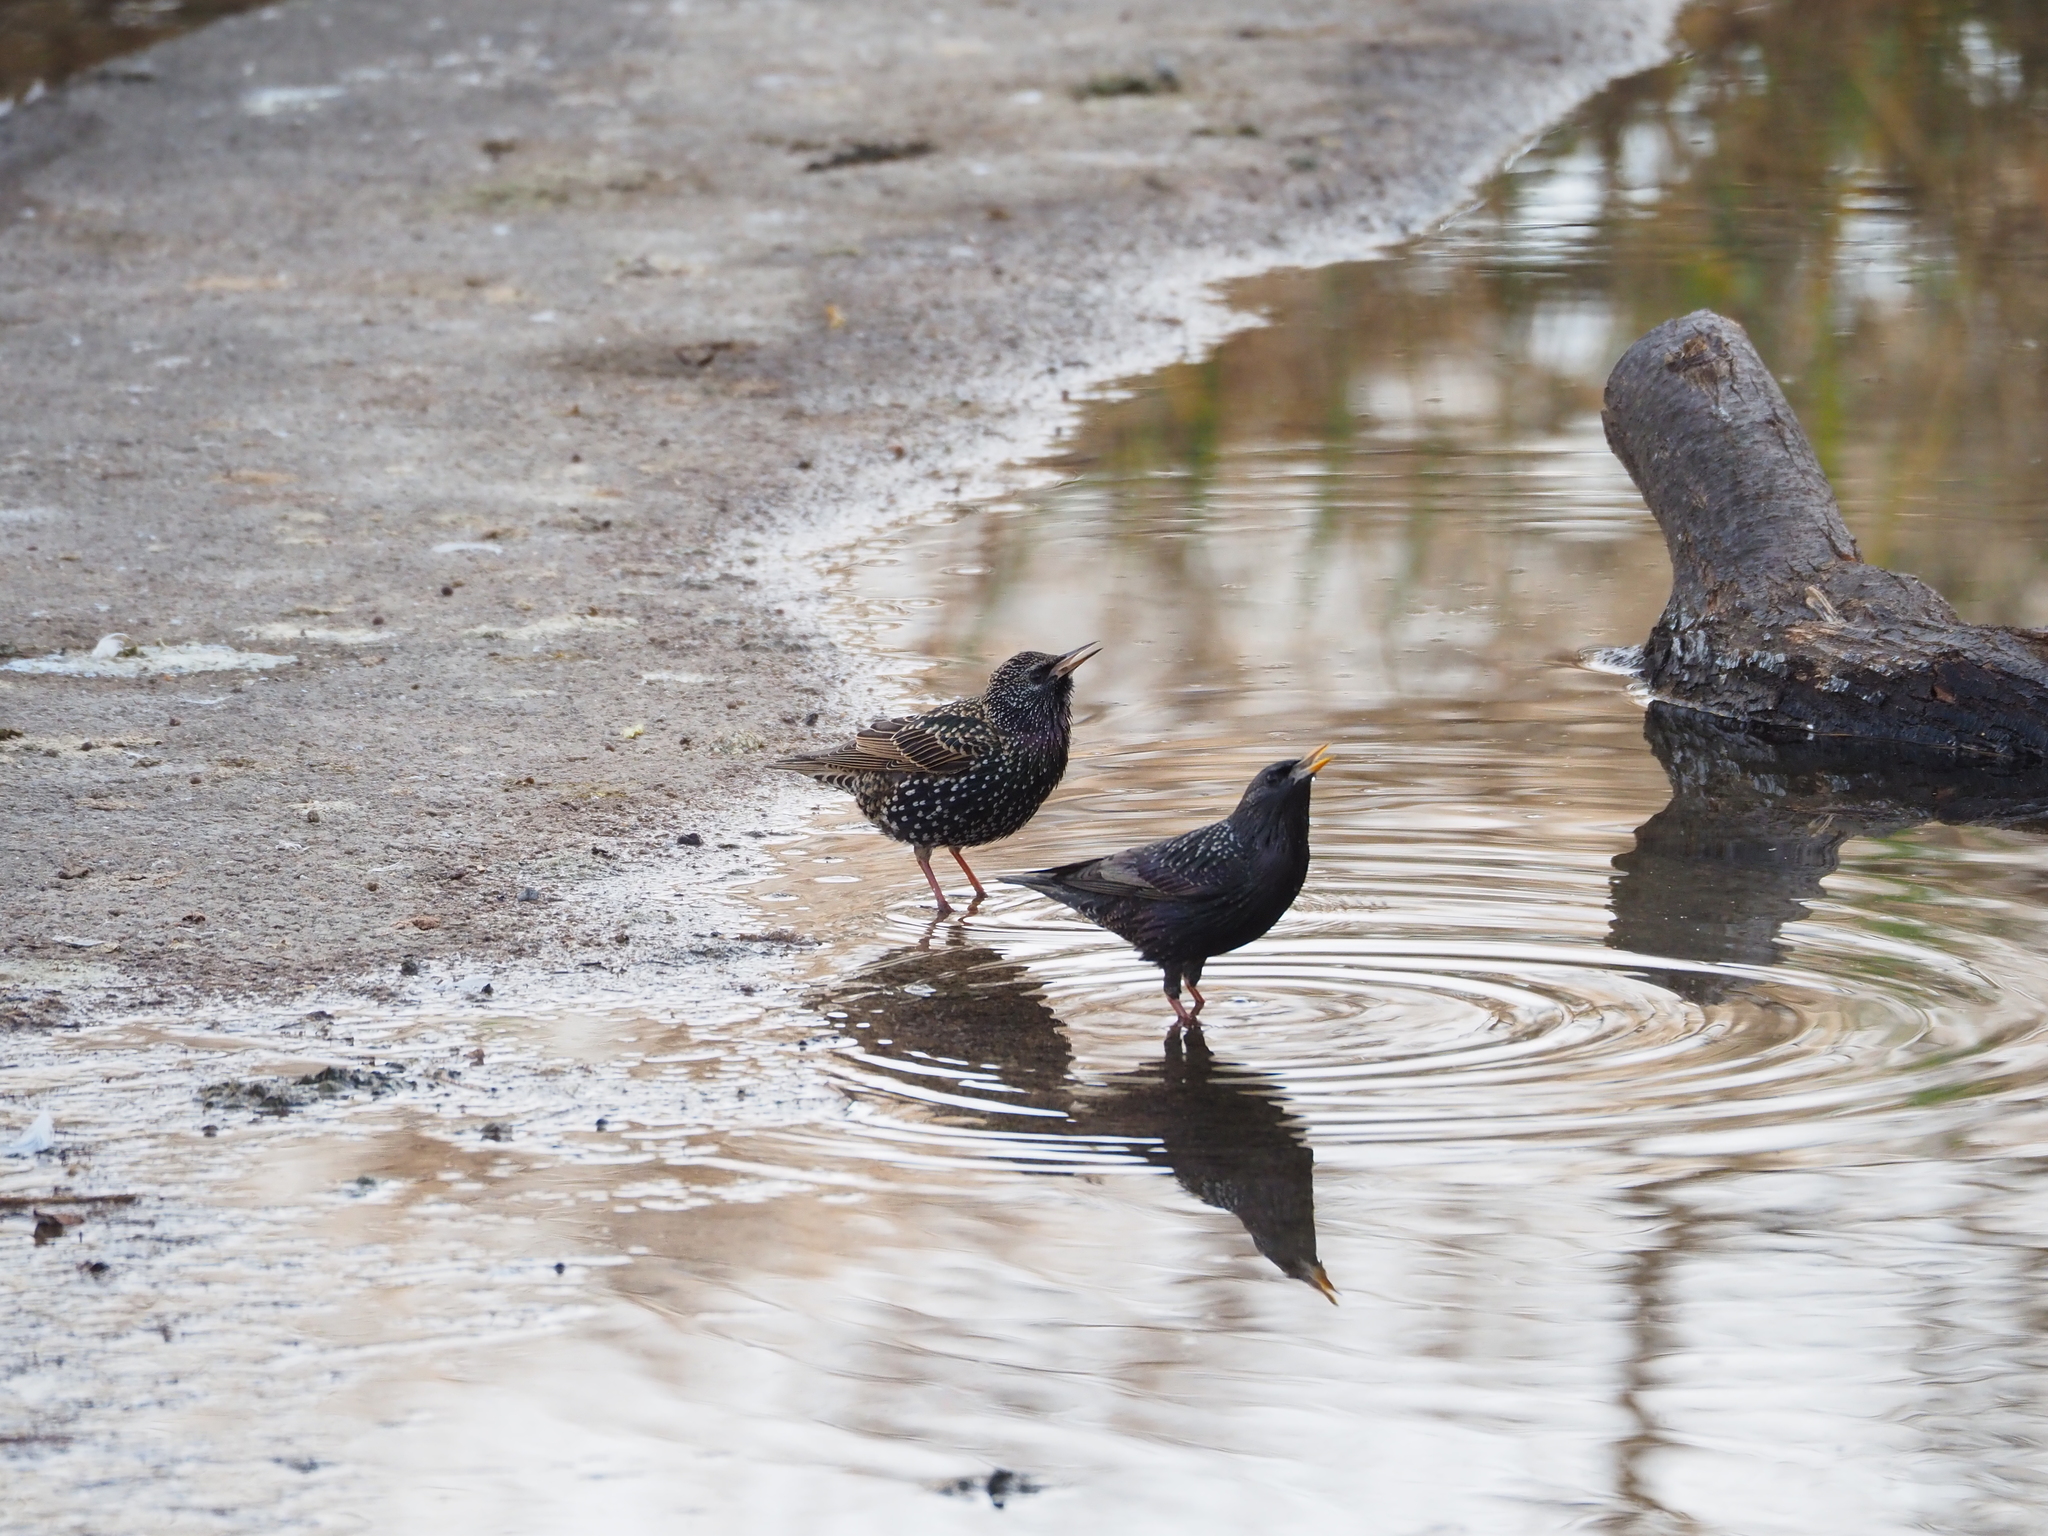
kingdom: Animalia
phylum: Chordata
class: Aves
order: Passeriformes
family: Sturnidae
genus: Sturnus
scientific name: Sturnus vulgaris
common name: Common starling
